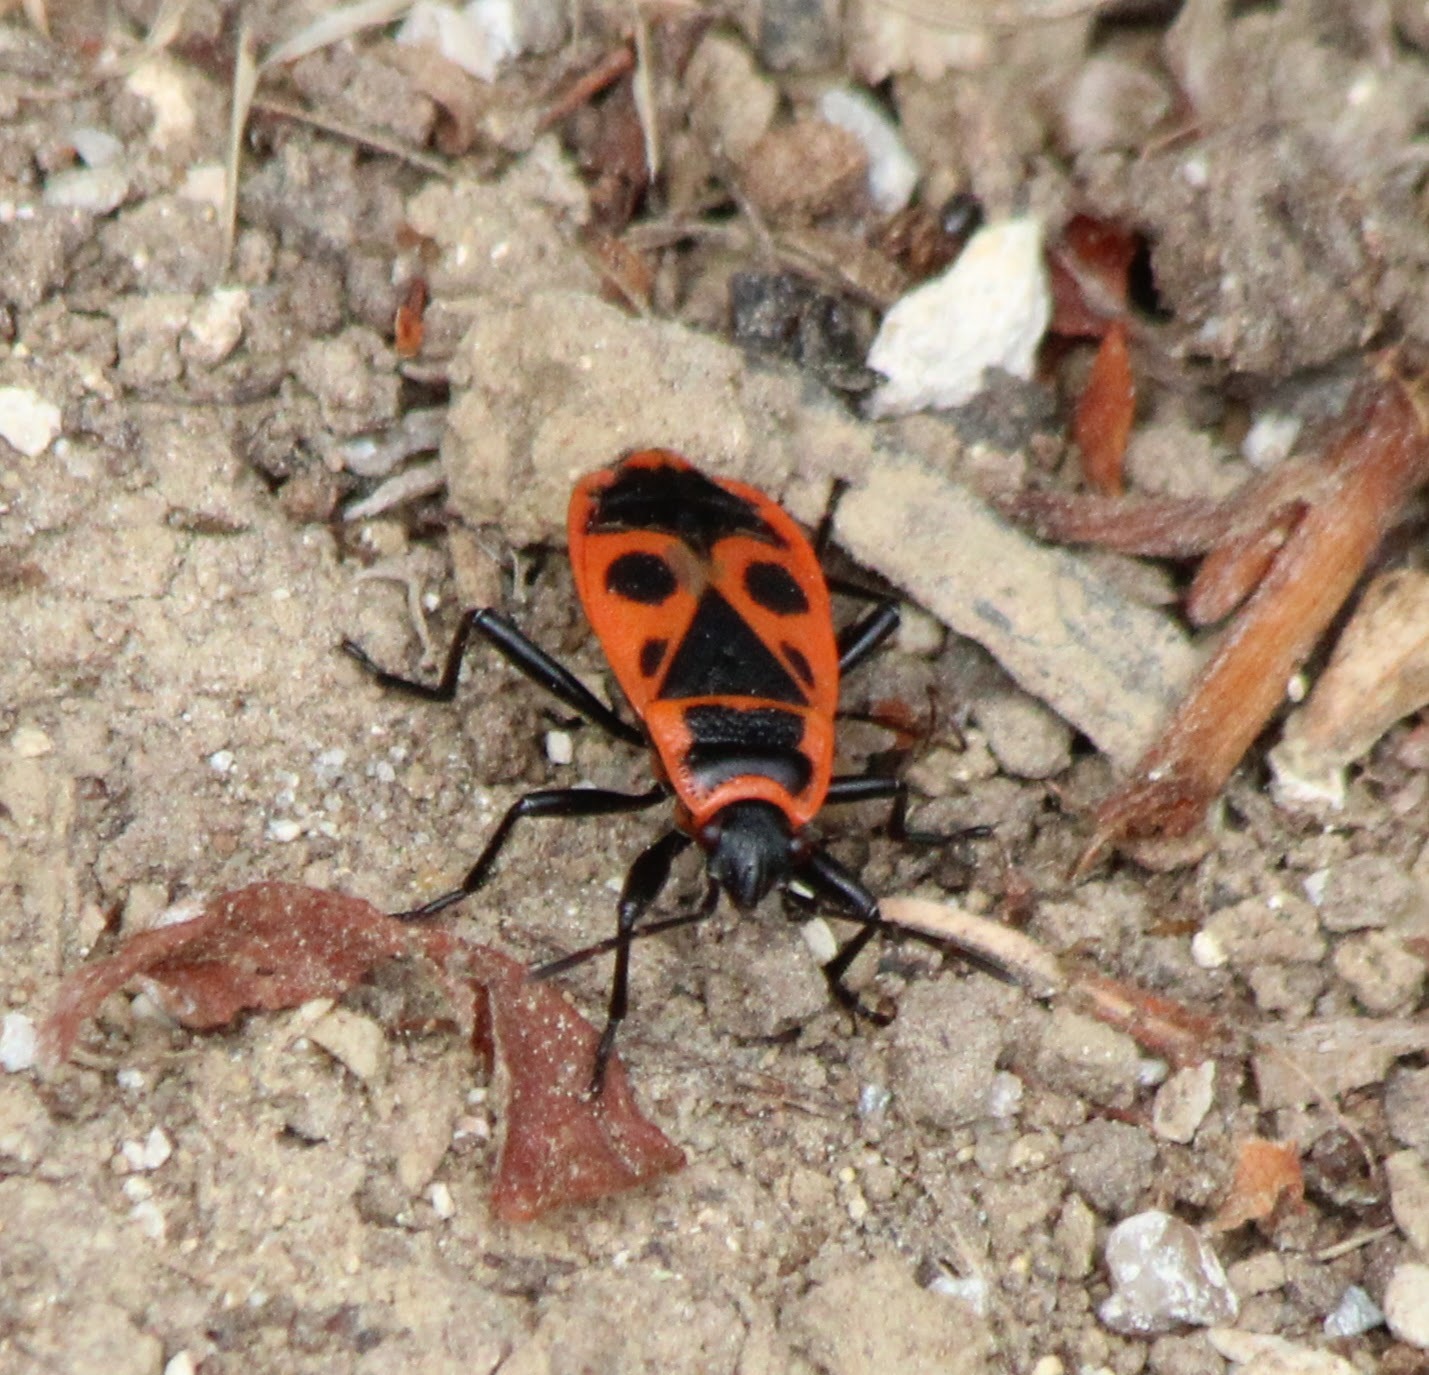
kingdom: Animalia
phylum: Arthropoda
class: Insecta
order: Hemiptera
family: Pyrrhocoridae
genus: Pyrrhocoris
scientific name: Pyrrhocoris apterus
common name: Firebug
